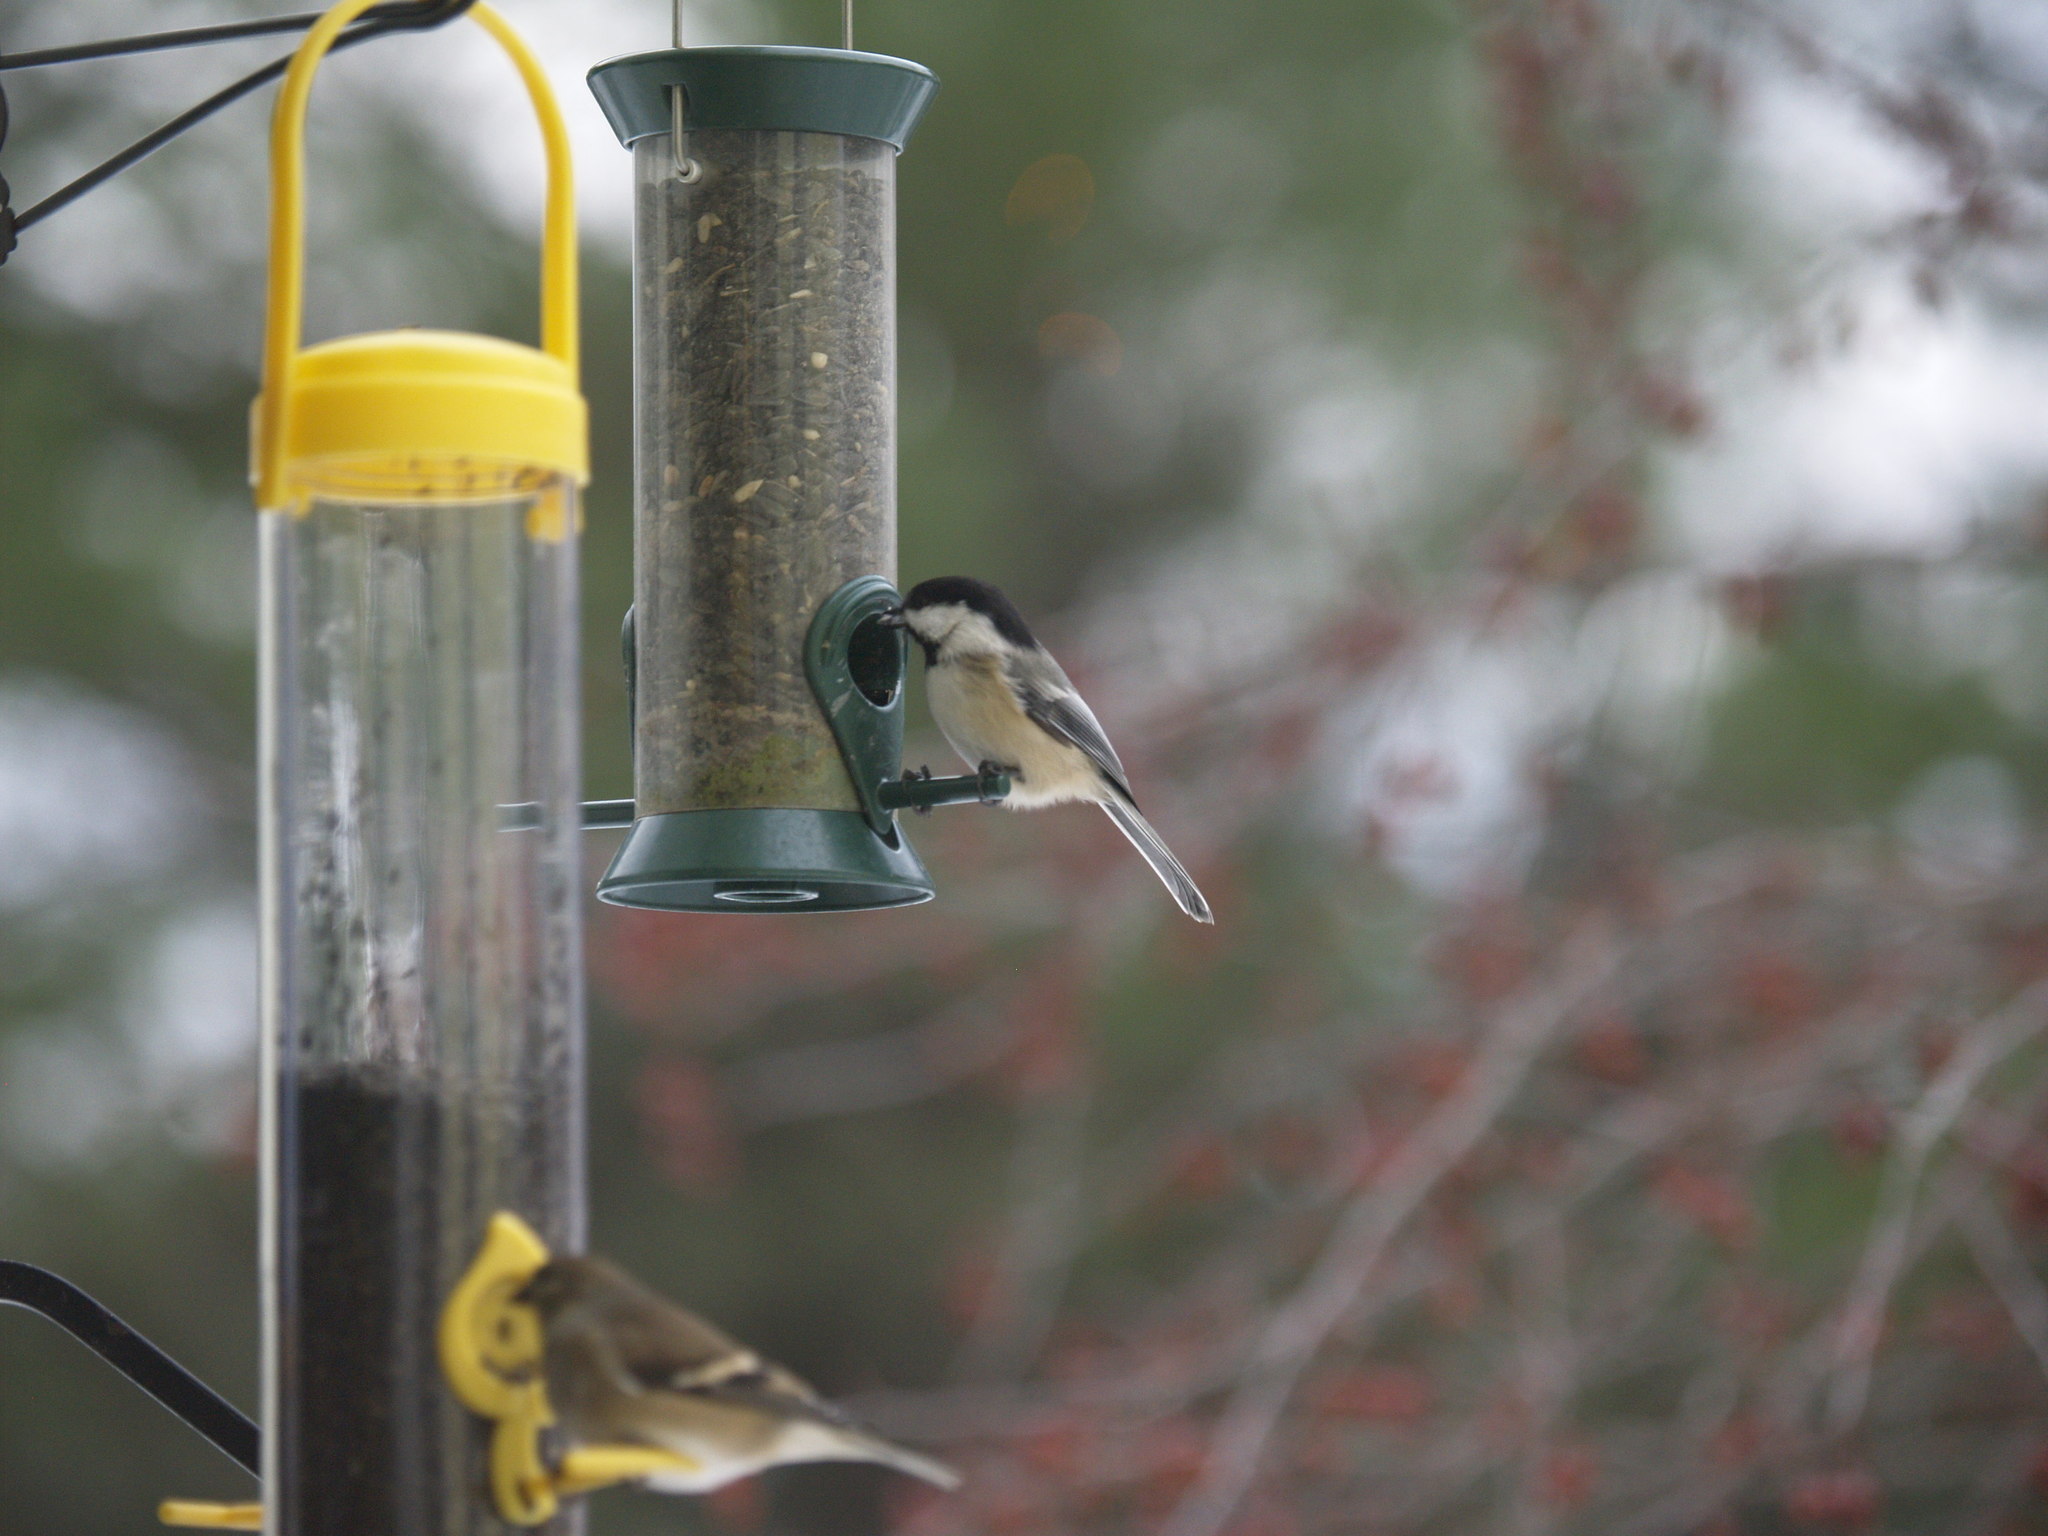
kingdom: Animalia
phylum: Chordata
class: Aves
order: Passeriformes
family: Paridae
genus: Poecile
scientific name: Poecile atricapillus
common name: Black-capped chickadee
